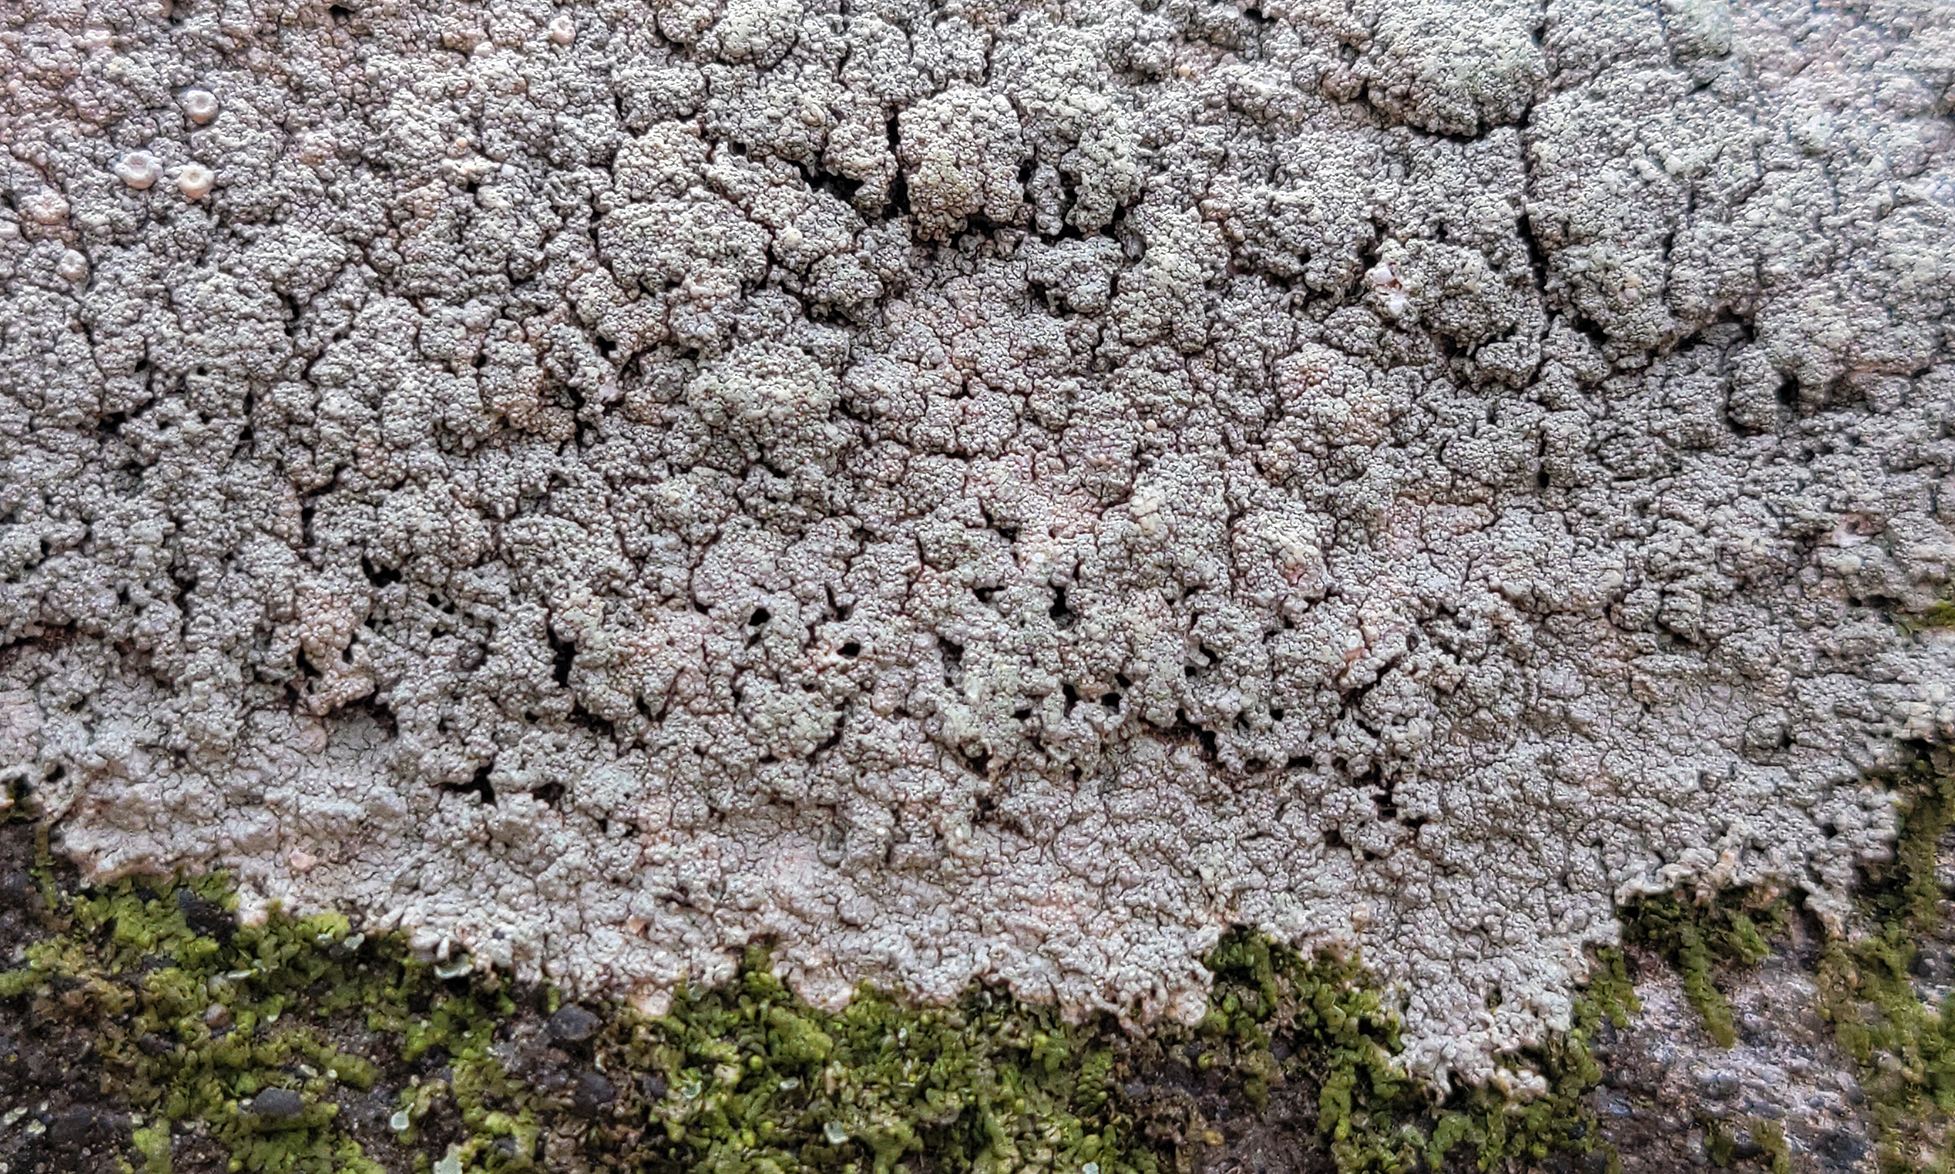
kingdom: Fungi
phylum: Ascomycota
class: Lecanoromycetes
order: Pertusariales
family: Ochrolechiaceae
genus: Ochrolechia
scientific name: Ochrolechia yasudae
